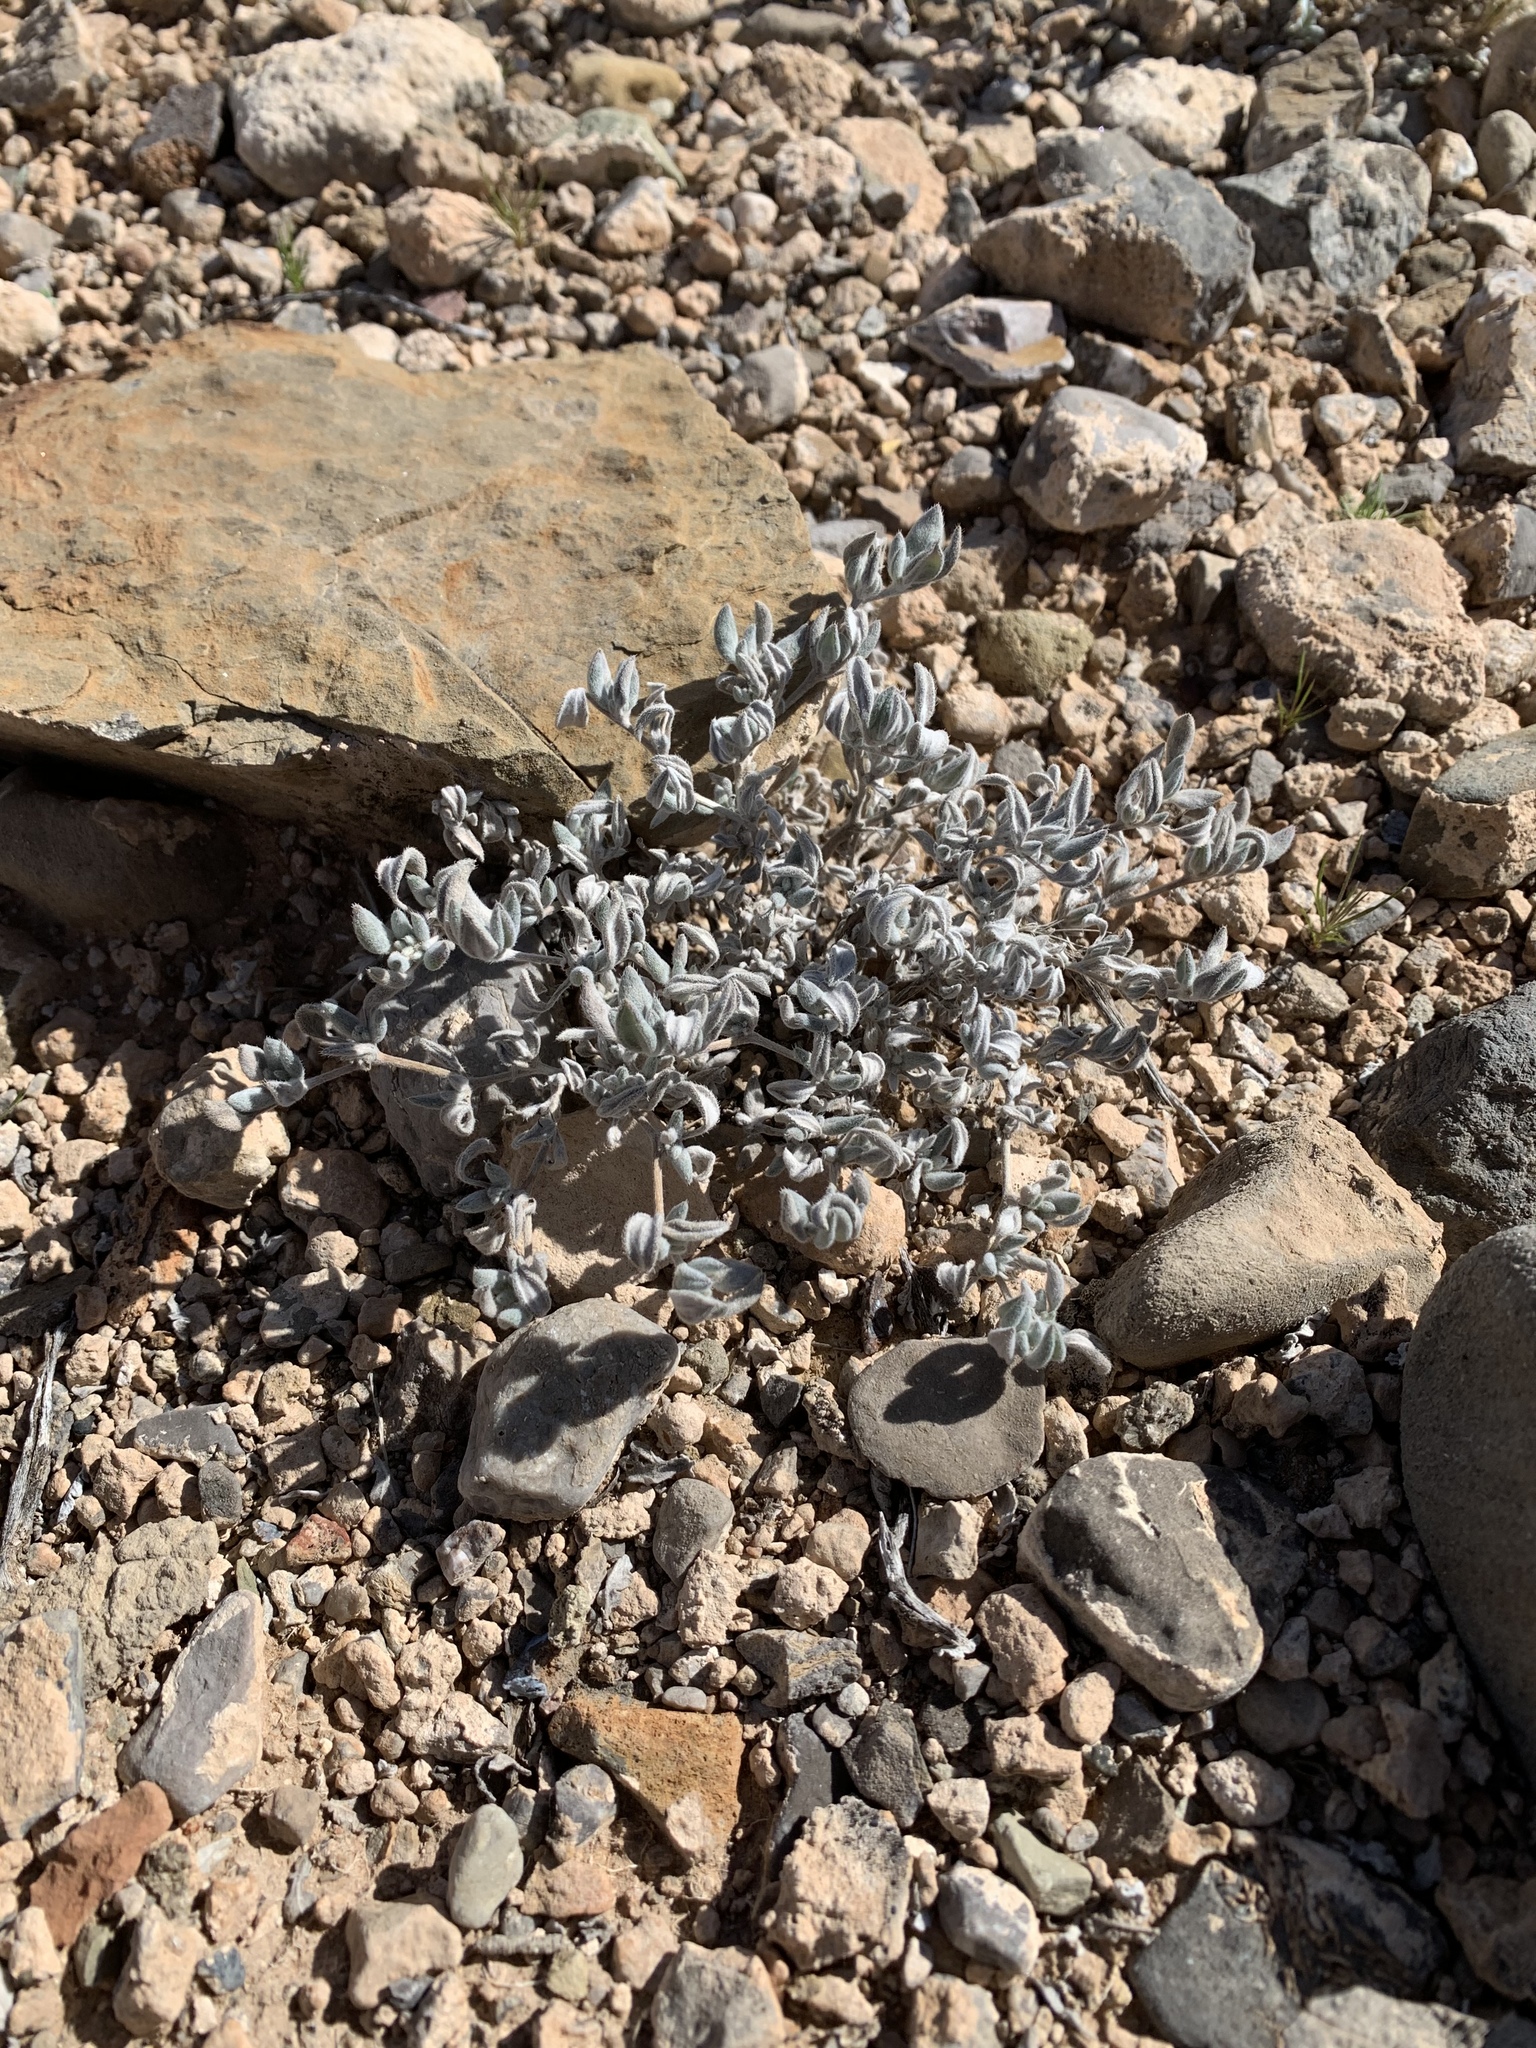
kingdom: Plantae
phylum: Tracheophyta
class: Magnoliopsida
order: Boraginales
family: Ehretiaceae
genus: Tiquilia
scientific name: Tiquilia canescens
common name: Hairy tiquilia
